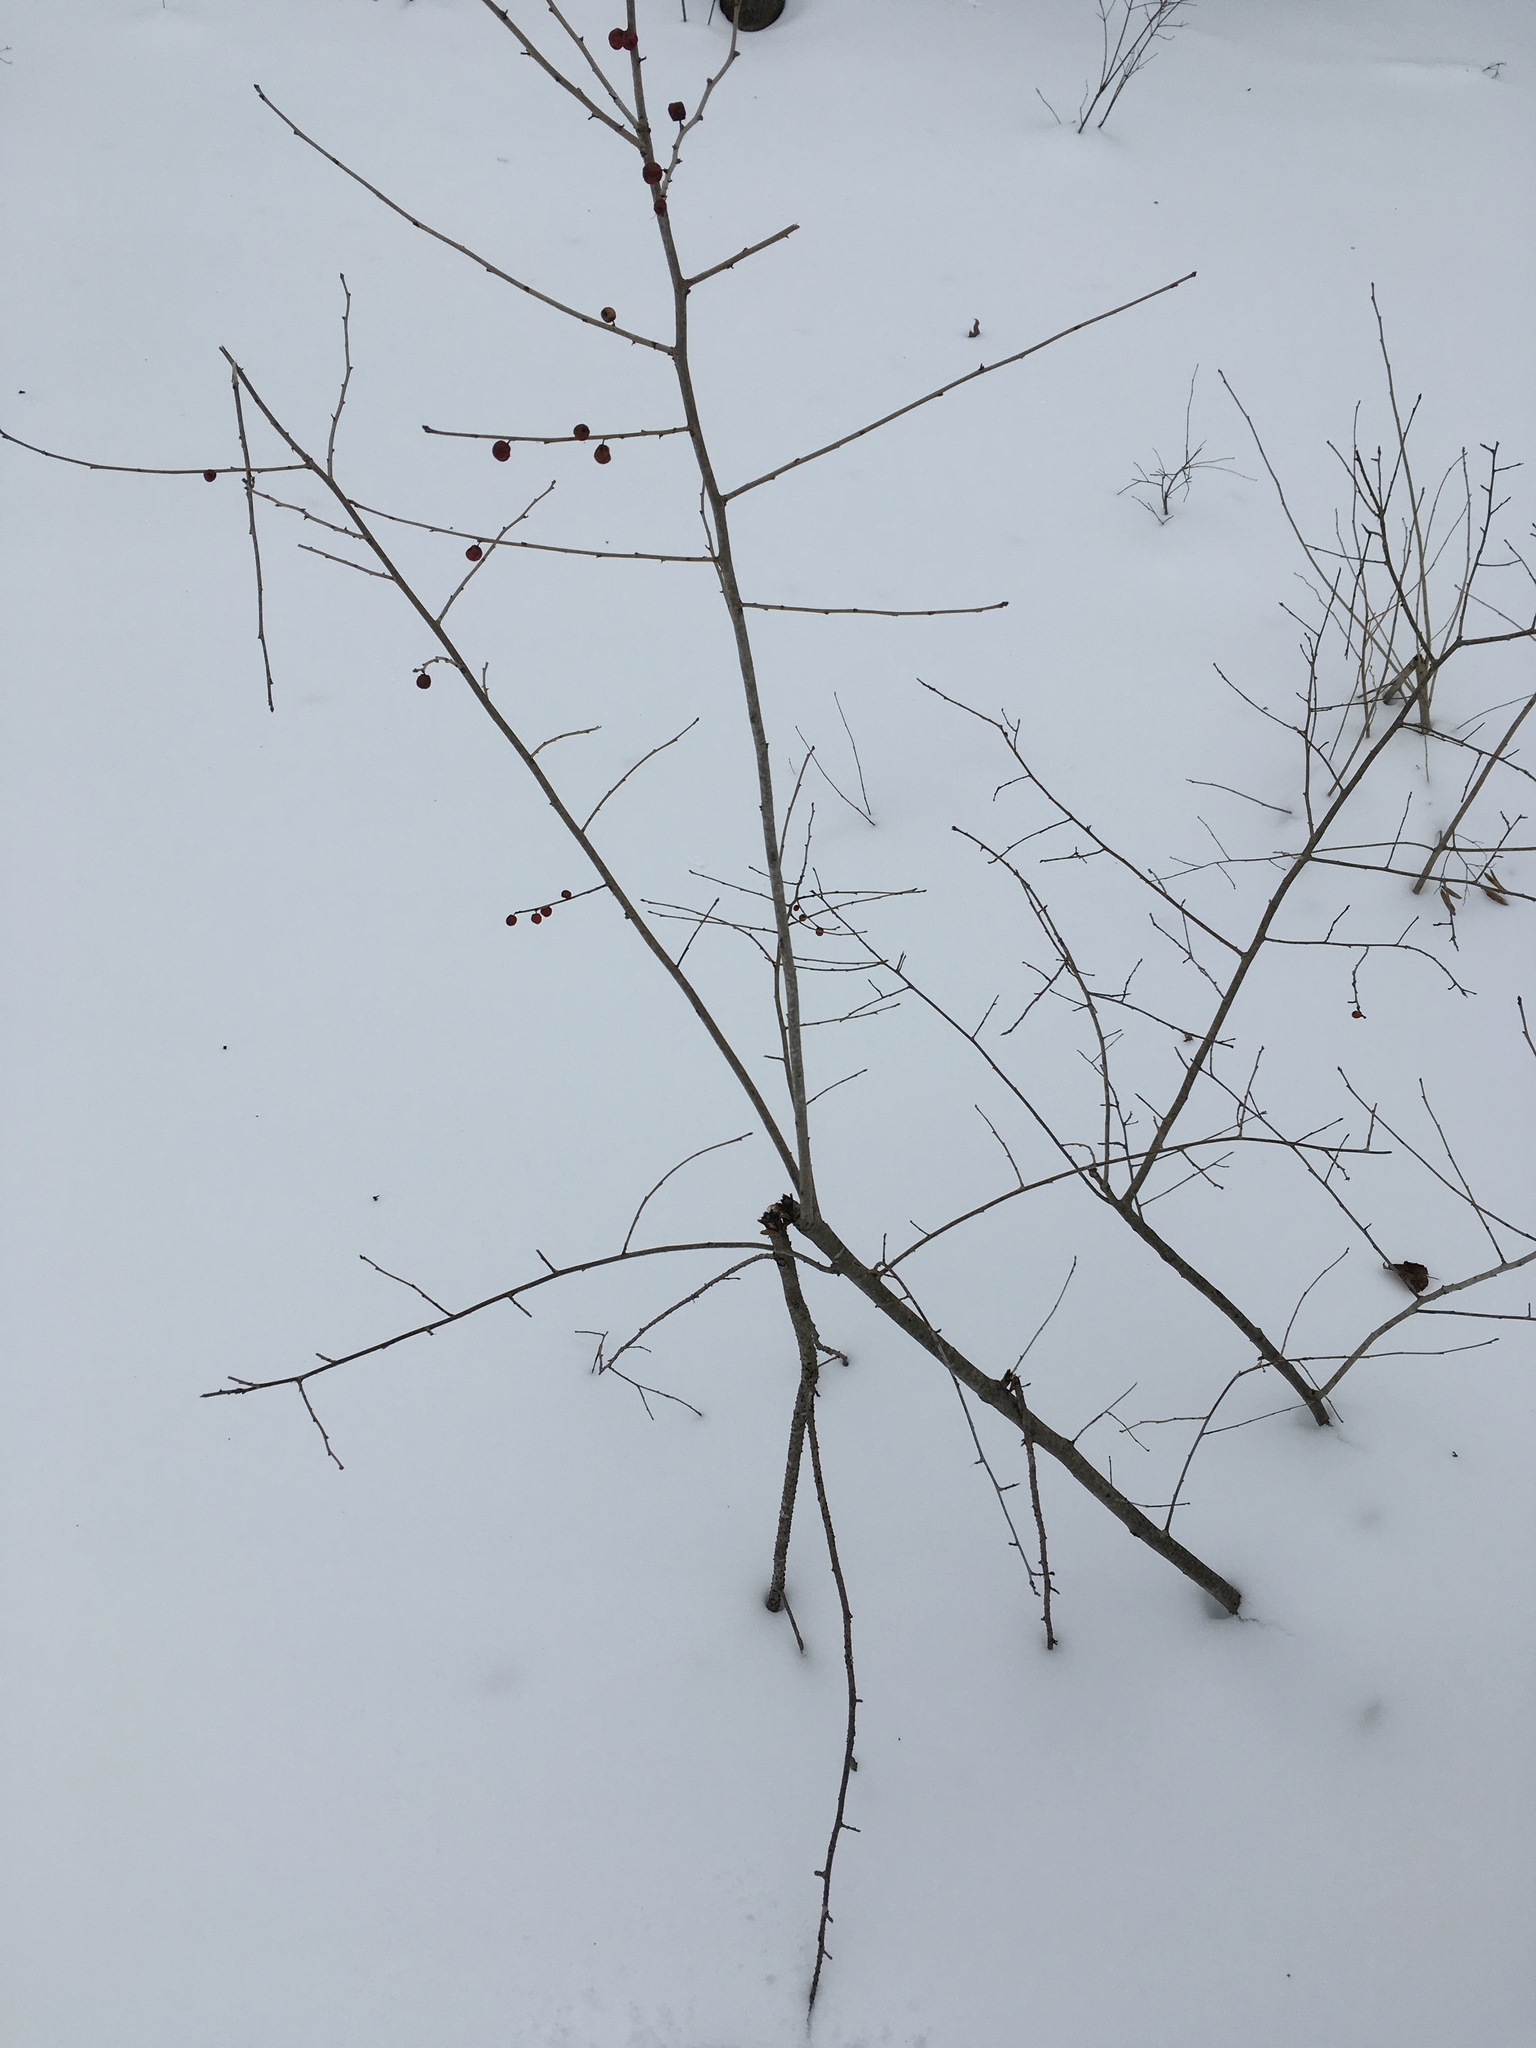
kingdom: Plantae
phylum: Tracheophyta
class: Magnoliopsida
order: Aquifoliales
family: Aquifoliaceae
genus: Ilex
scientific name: Ilex verticillata
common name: Virginia winterberry
